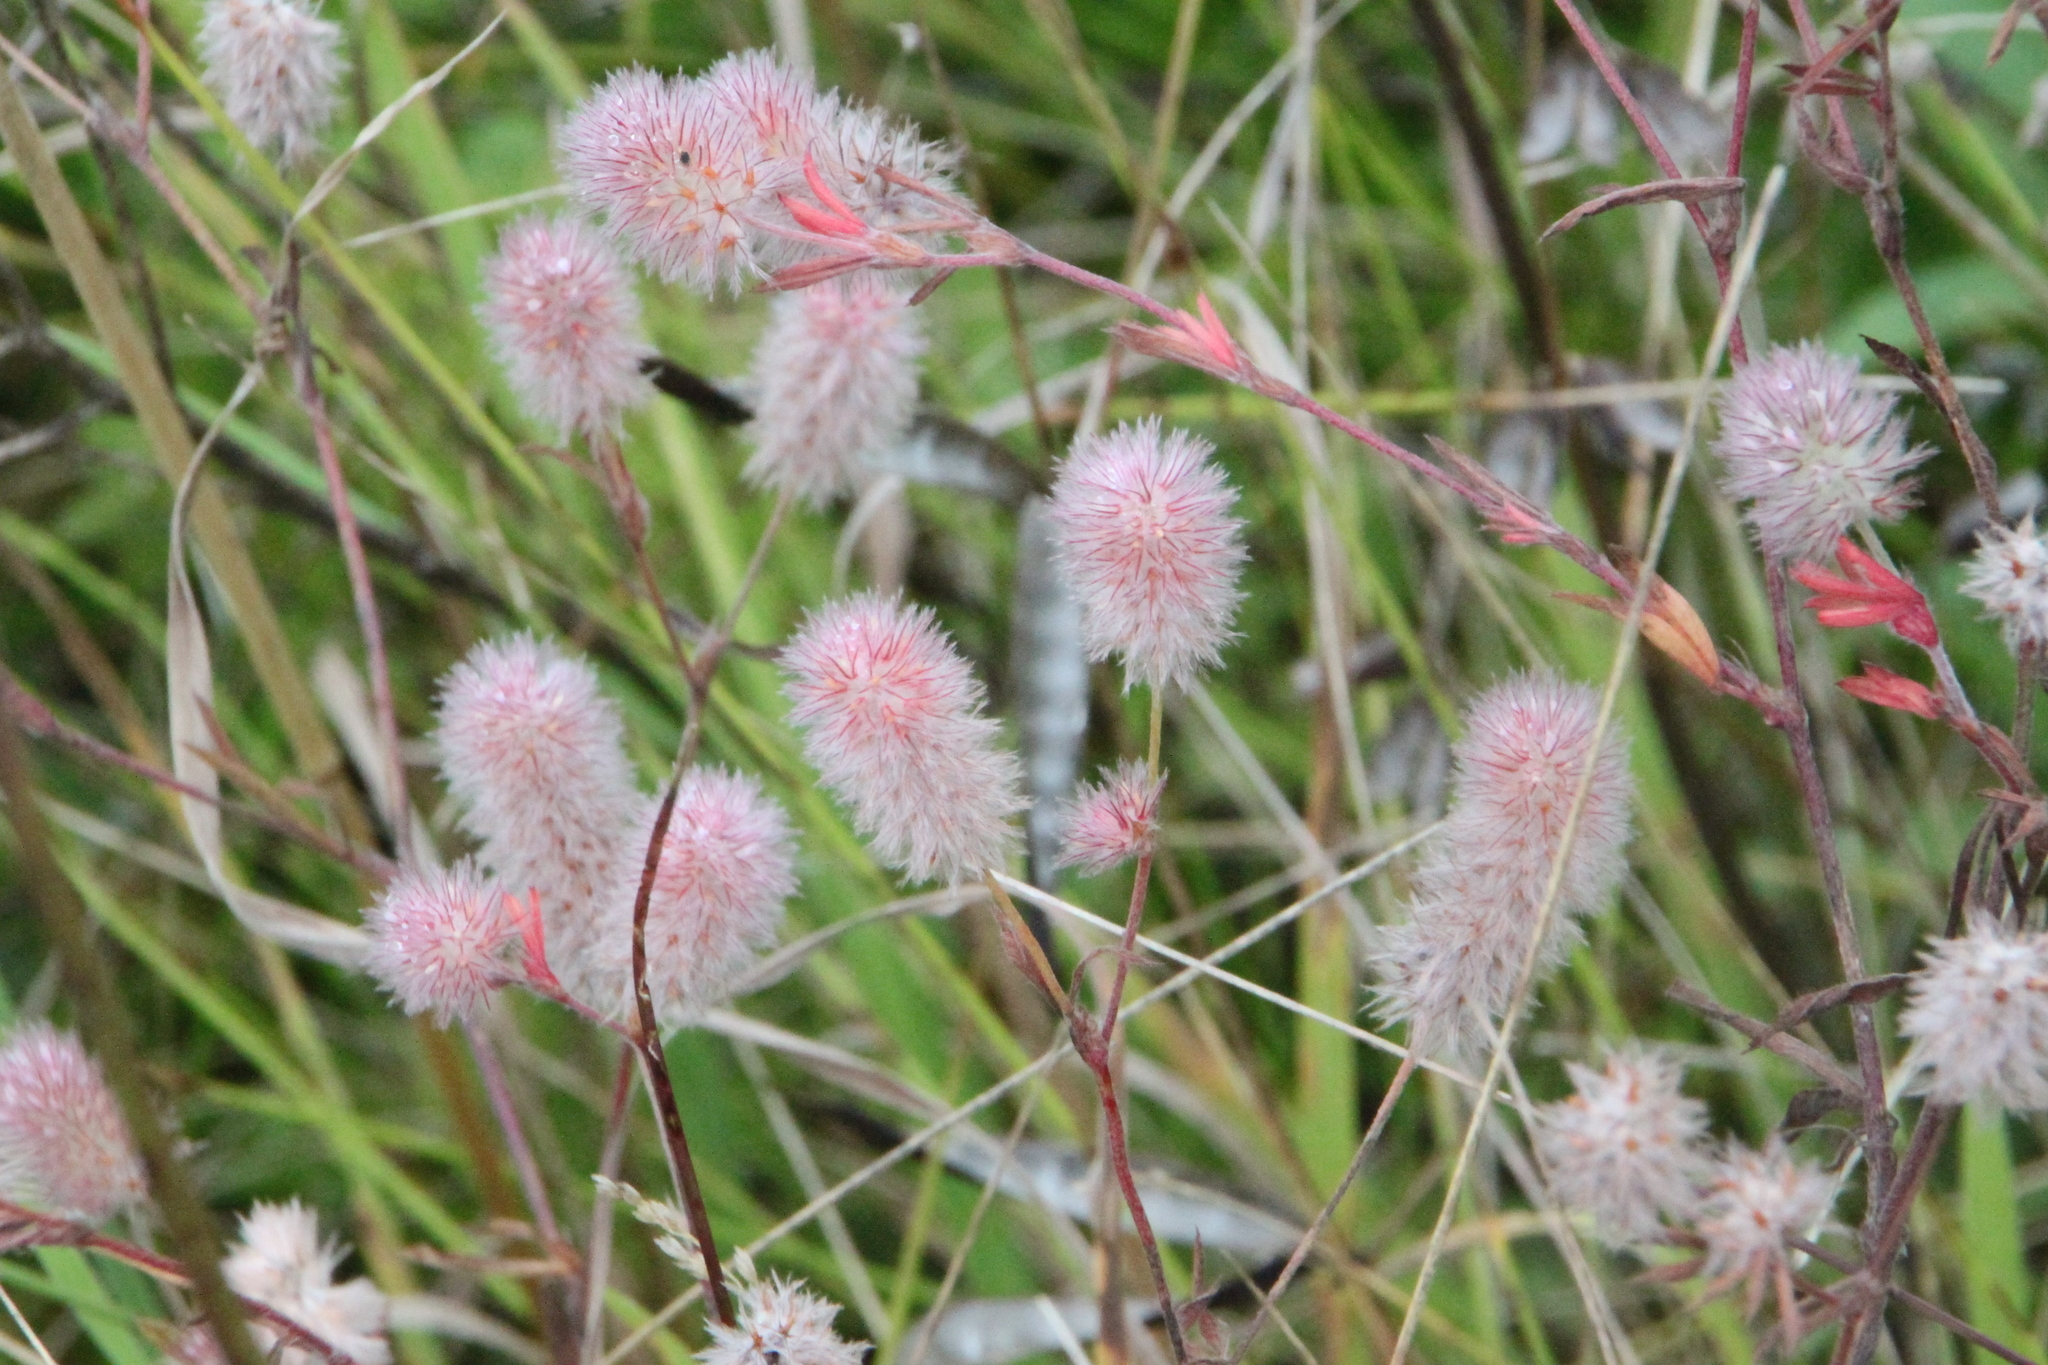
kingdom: Plantae
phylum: Tracheophyta
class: Magnoliopsida
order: Fabales
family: Fabaceae
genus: Trifolium
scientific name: Trifolium arvense
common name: Hare's-foot clover
